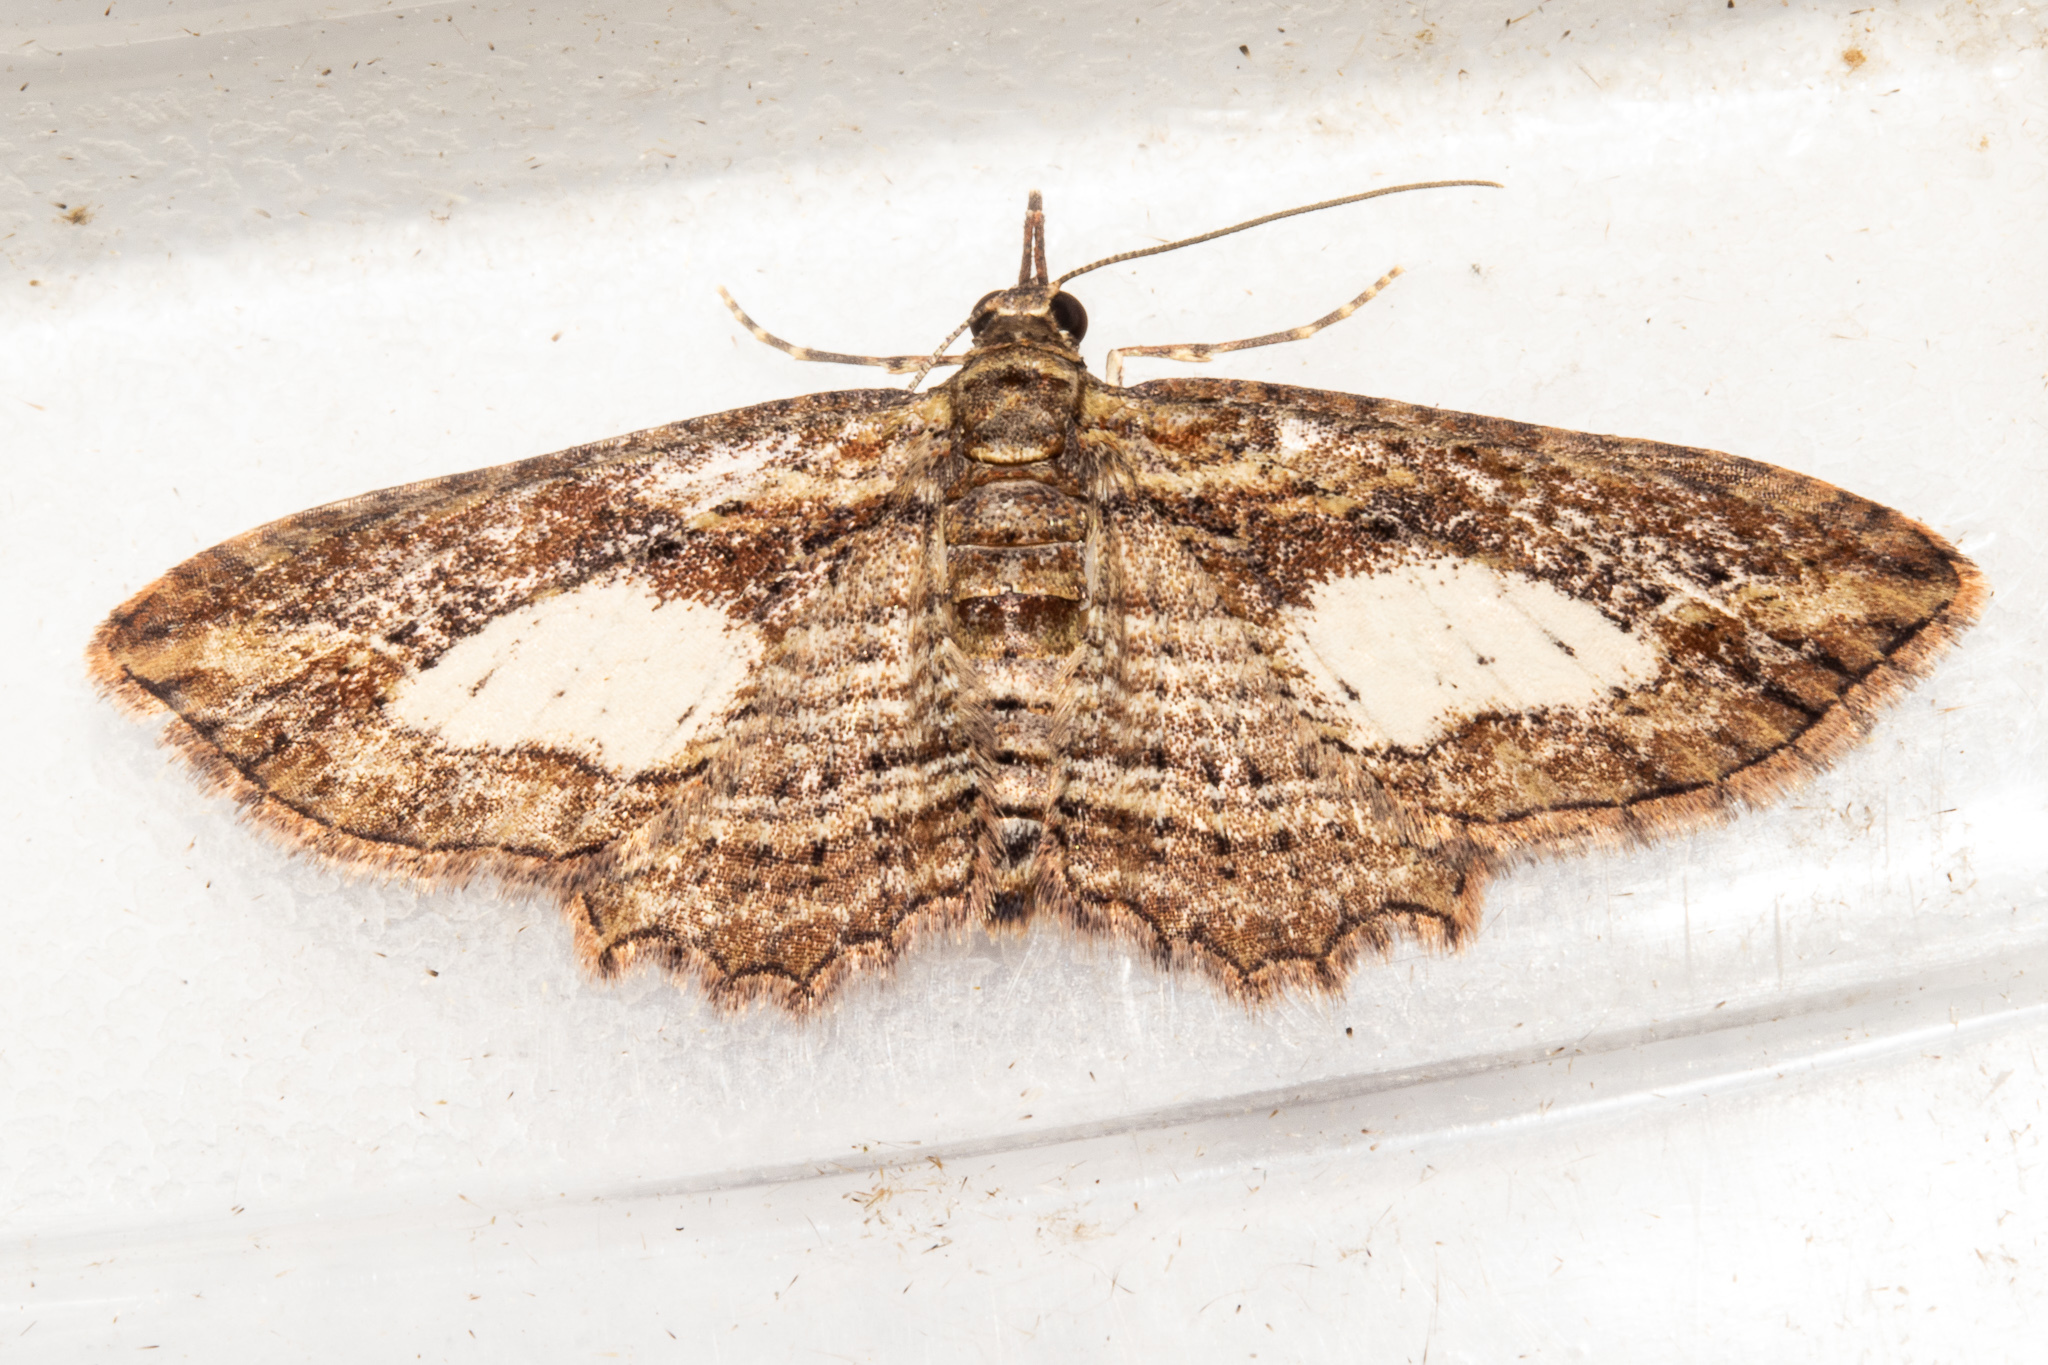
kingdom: Animalia
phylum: Arthropoda
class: Insecta
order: Lepidoptera
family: Geometridae
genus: Chloroclystis
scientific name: Chloroclystis filata
